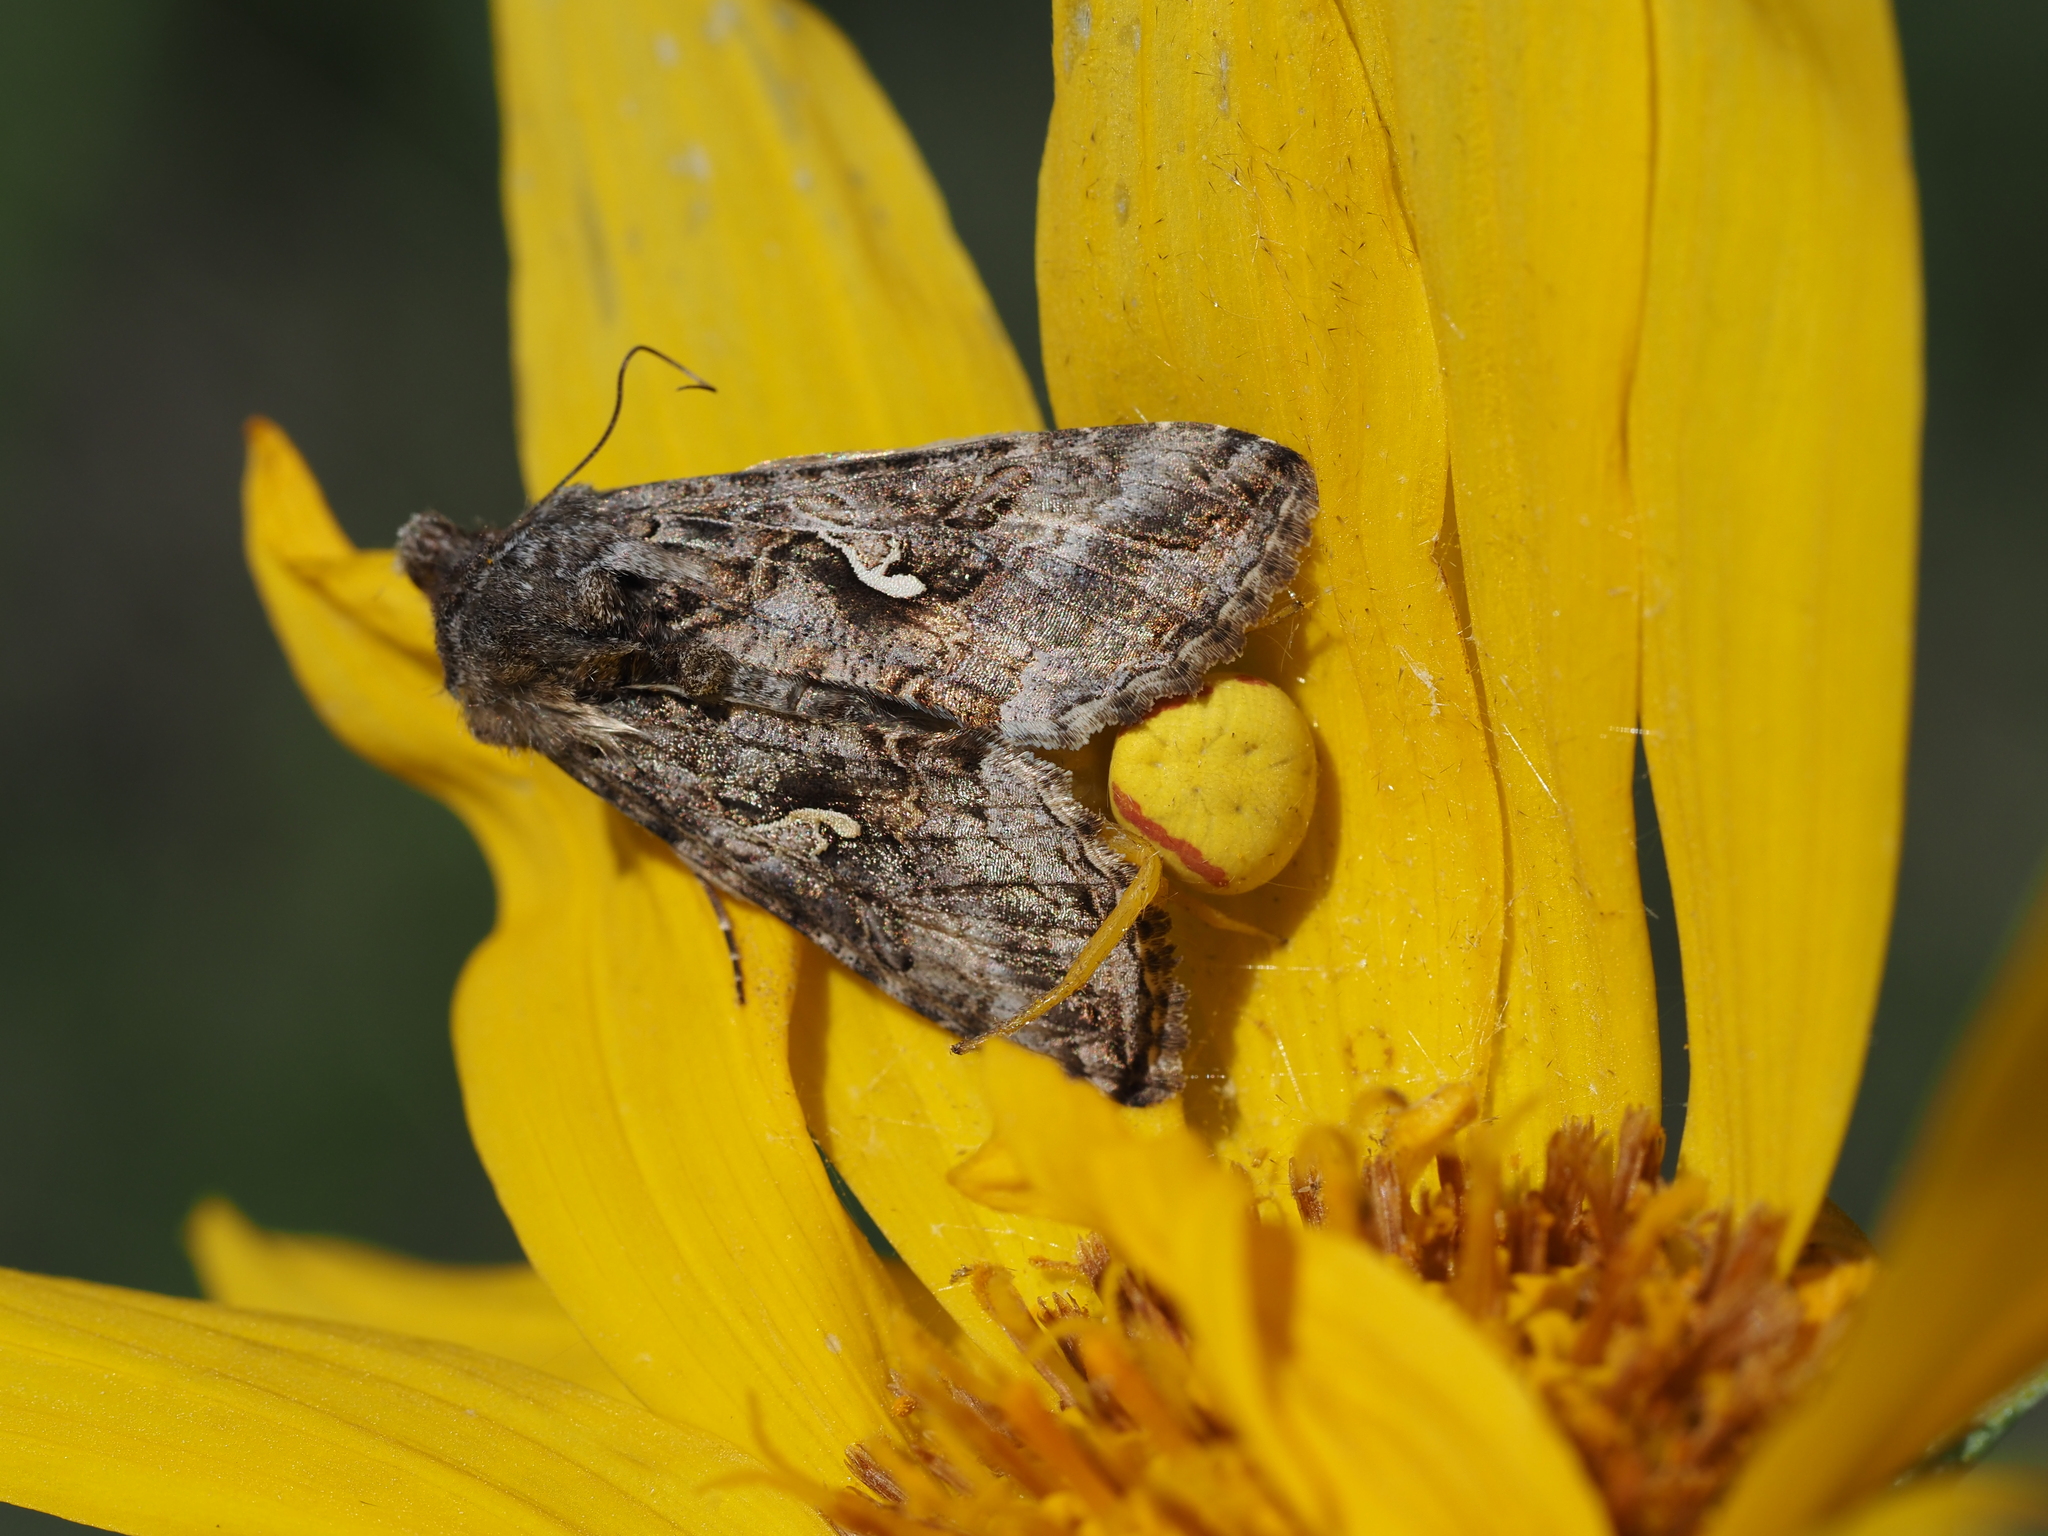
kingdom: Animalia
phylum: Arthropoda
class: Insecta
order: Lepidoptera
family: Noctuidae
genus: Autographa
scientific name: Autographa californica
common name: Alfalfa looper
